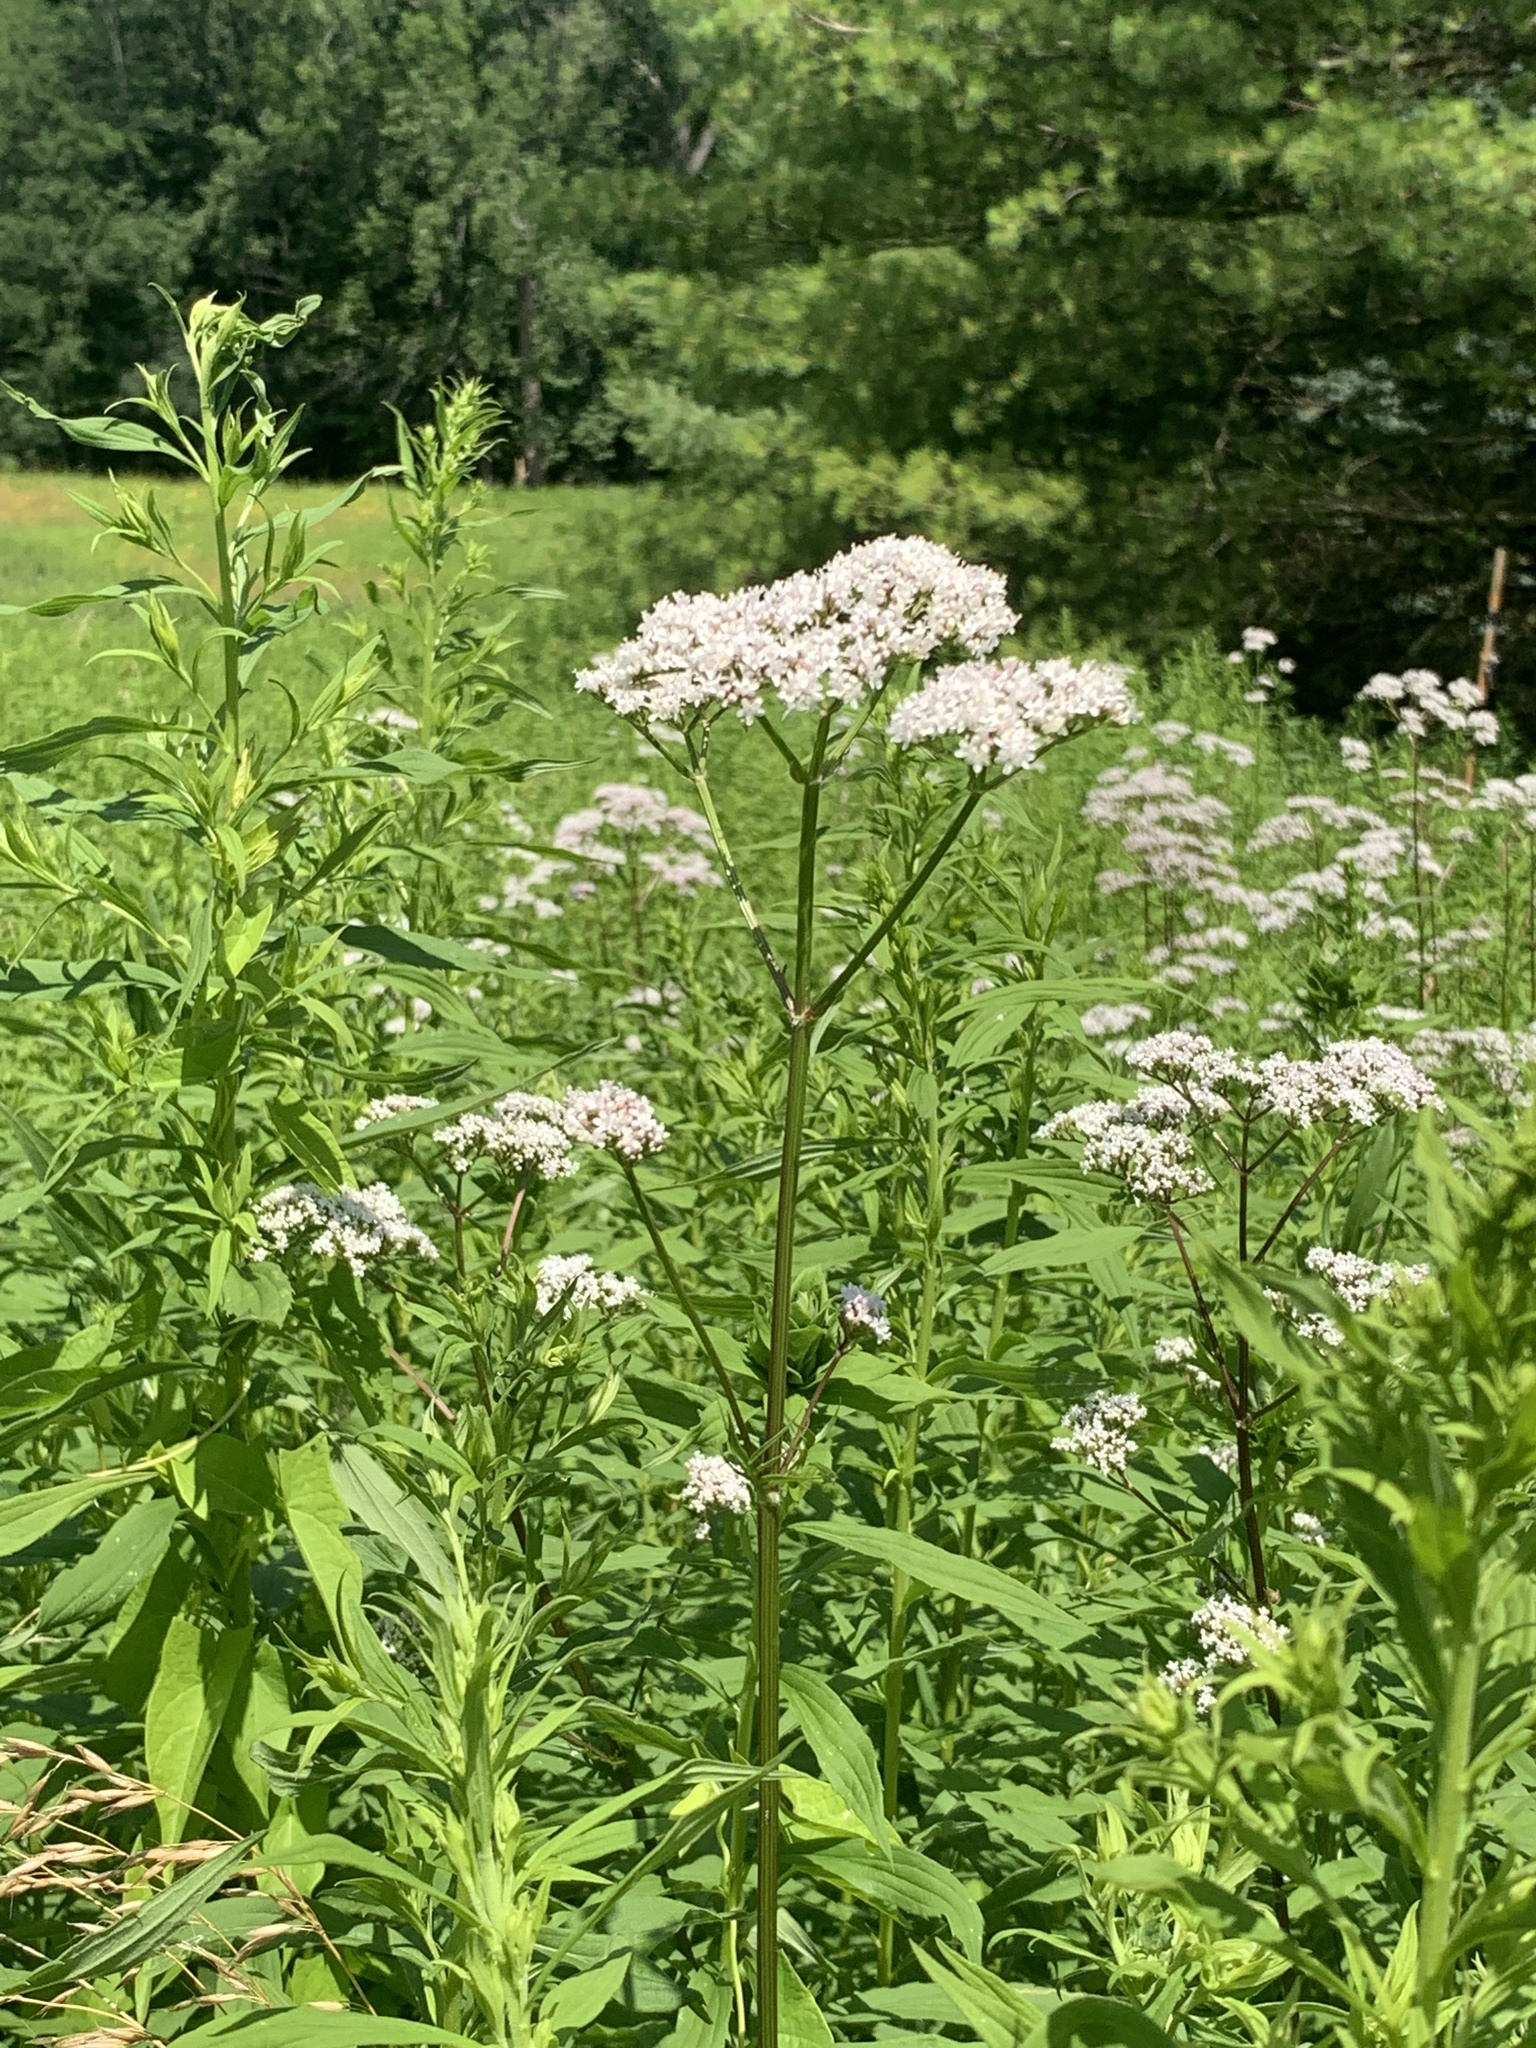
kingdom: Plantae
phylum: Tracheophyta
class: Magnoliopsida
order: Dipsacales
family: Caprifoliaceae
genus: Valeriana
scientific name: Valeriana officinalis
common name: Common valerian
